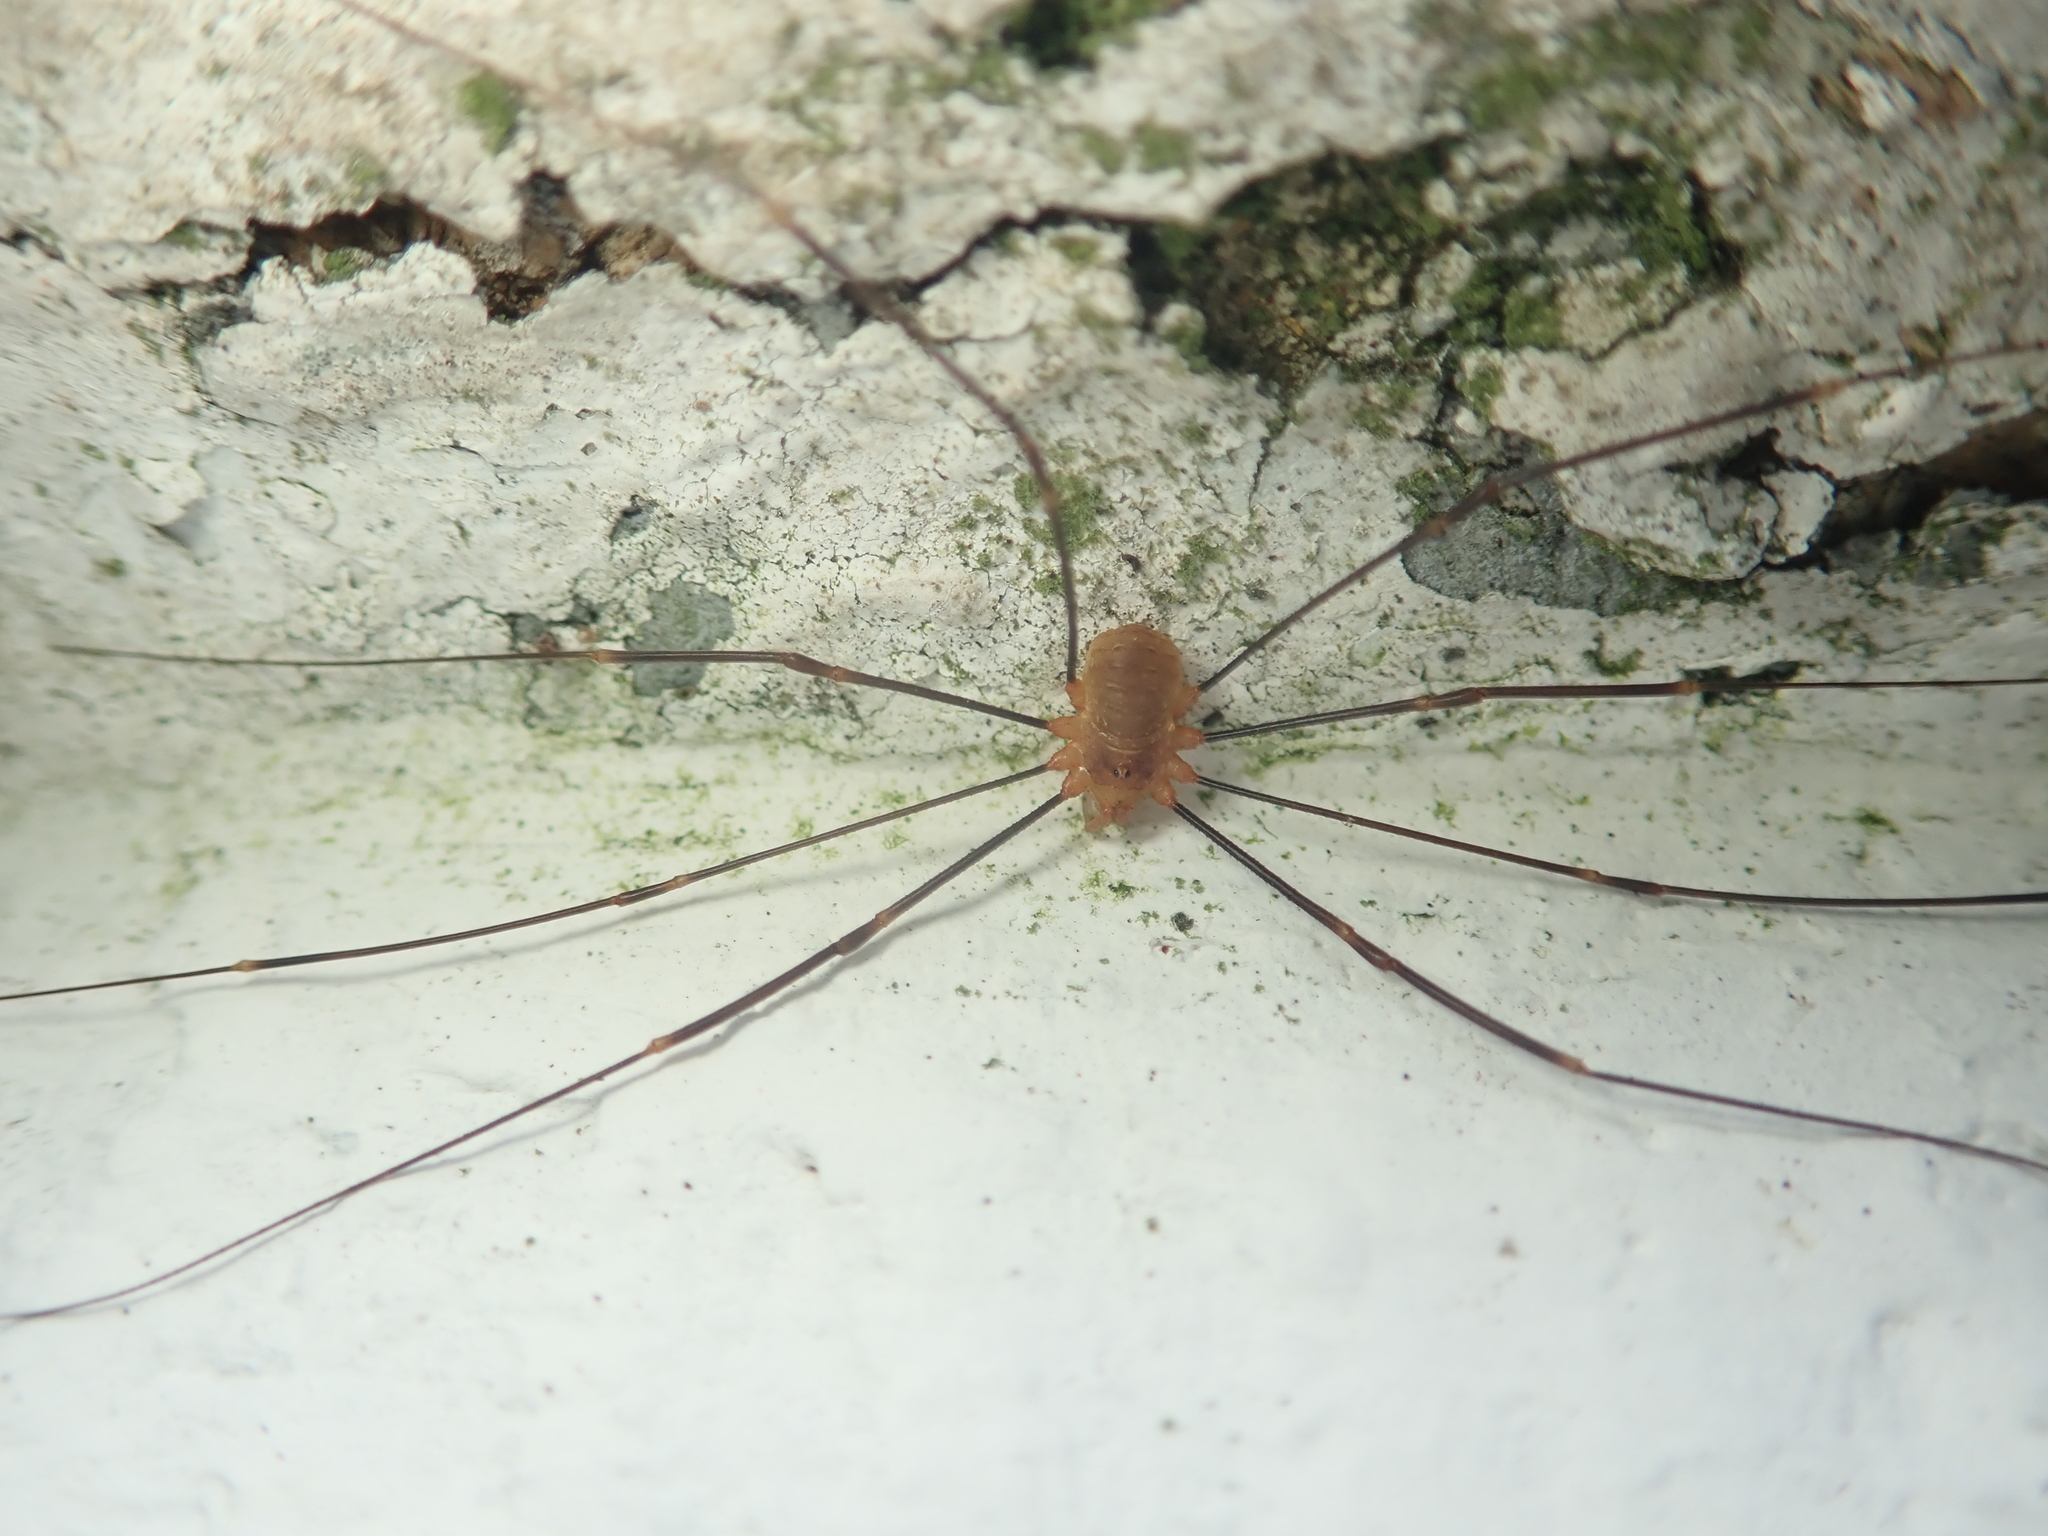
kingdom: Animalia
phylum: Arthropoda
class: Arachnida
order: Opiliones
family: Phalangiidae
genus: Opilio
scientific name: Opilio canestrinii
